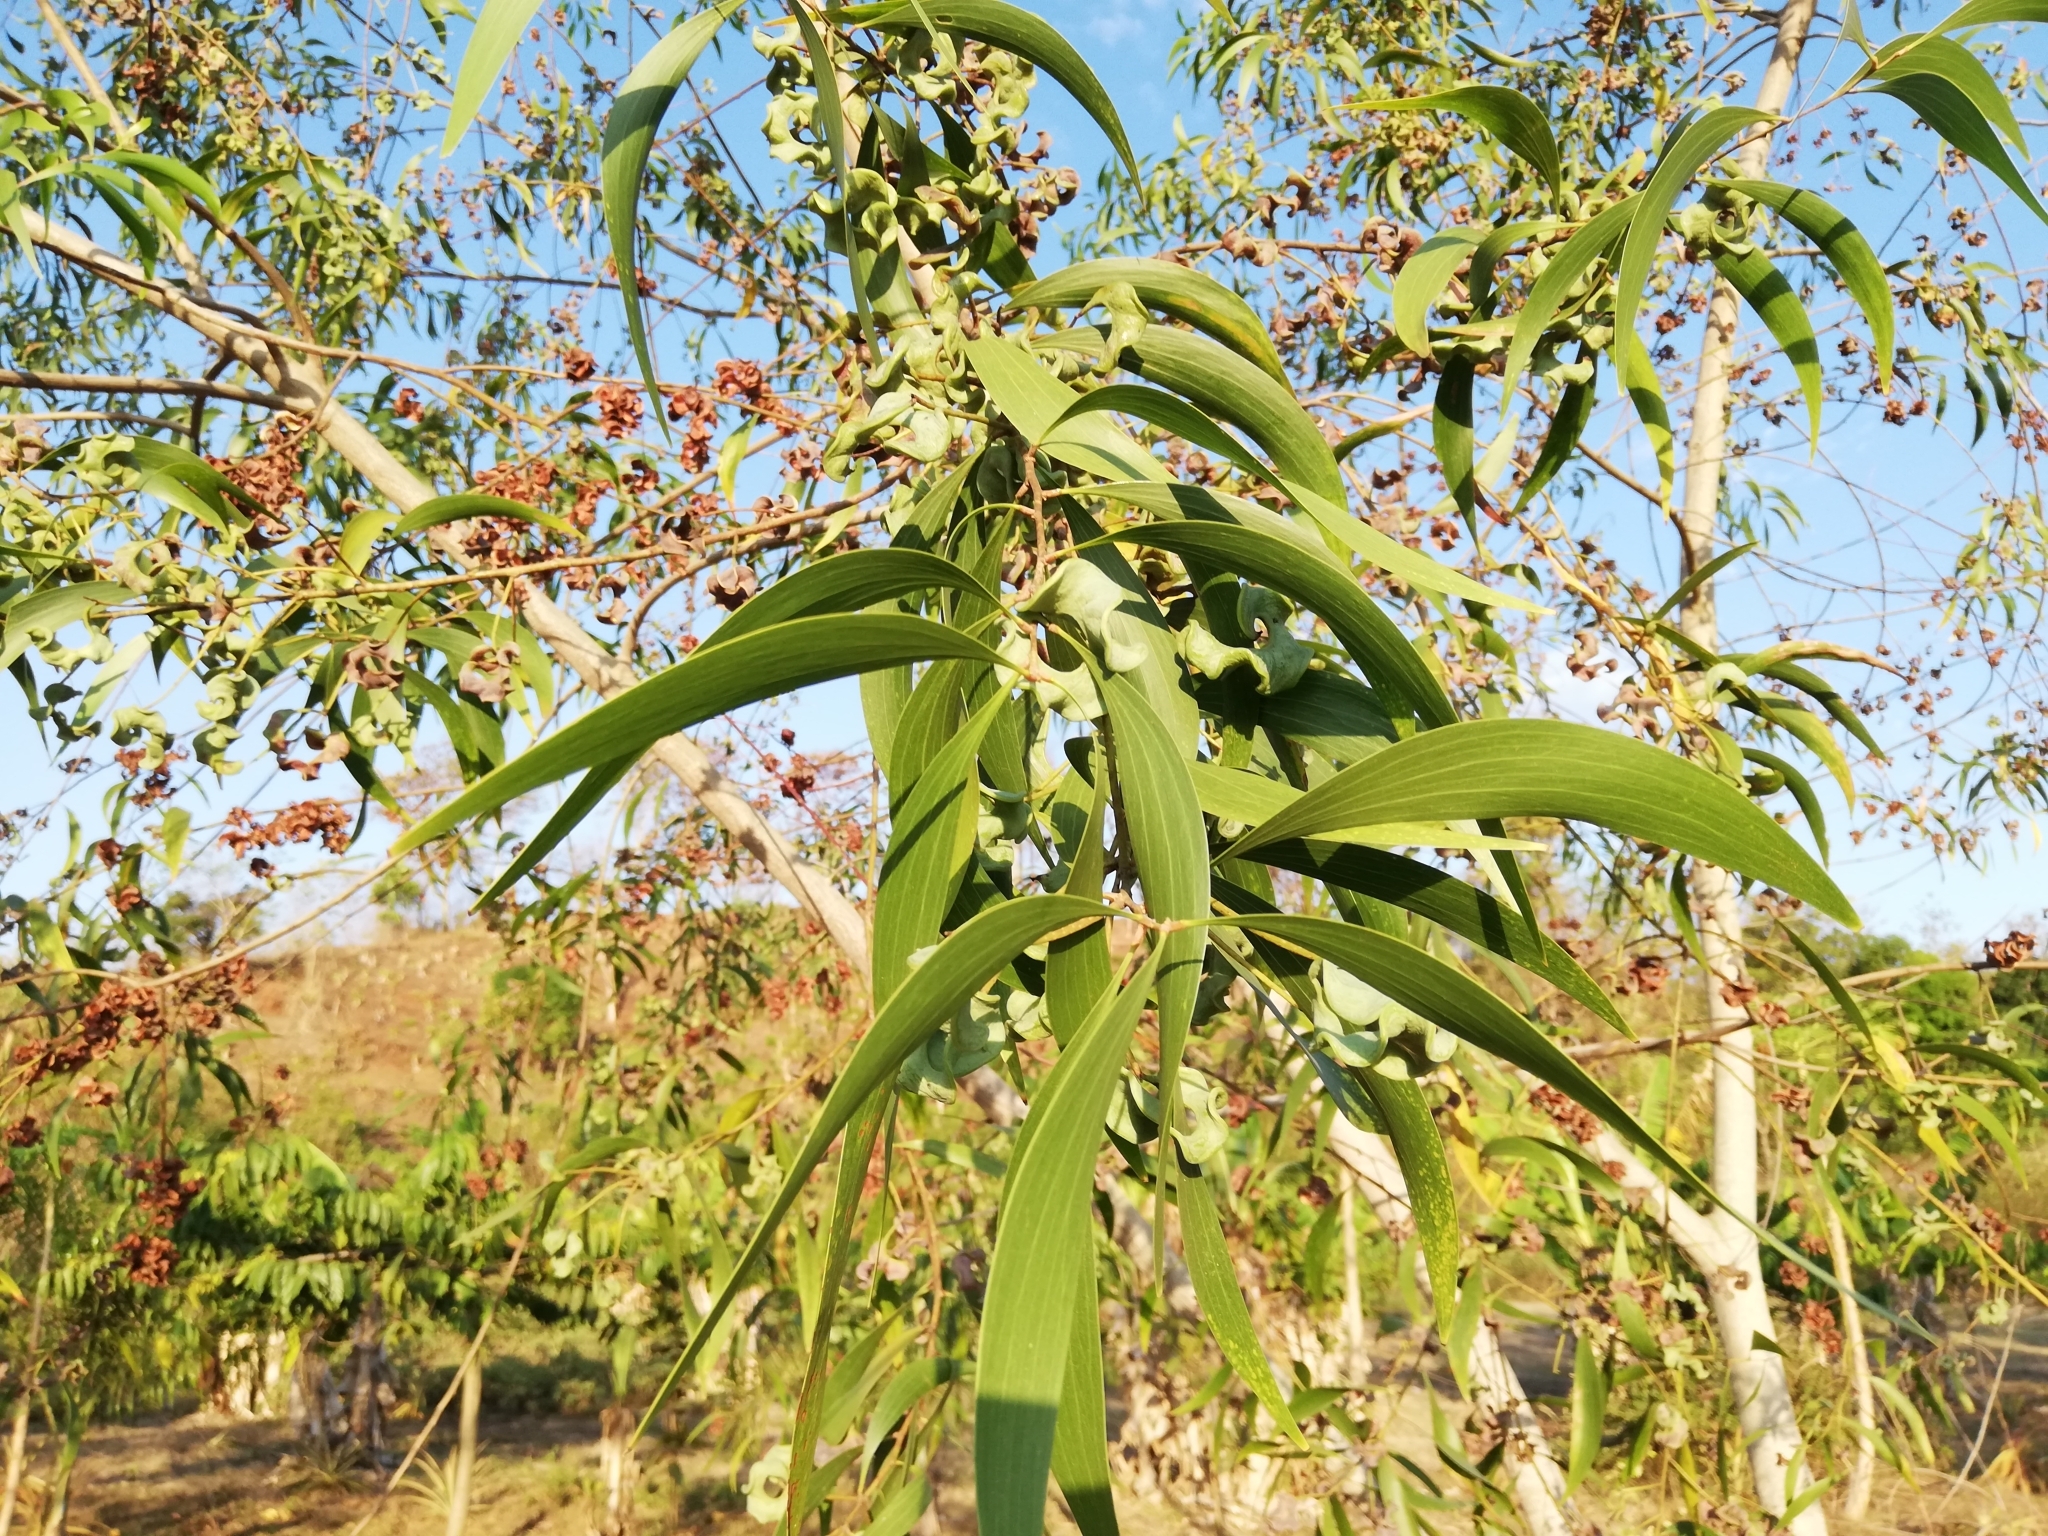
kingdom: Plantae
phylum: Tracheophyta
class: Magnoliopsida
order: Fabales
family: Fabaceae
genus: Acacia
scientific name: Acacia auriculiformis
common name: Earleaf acacia
